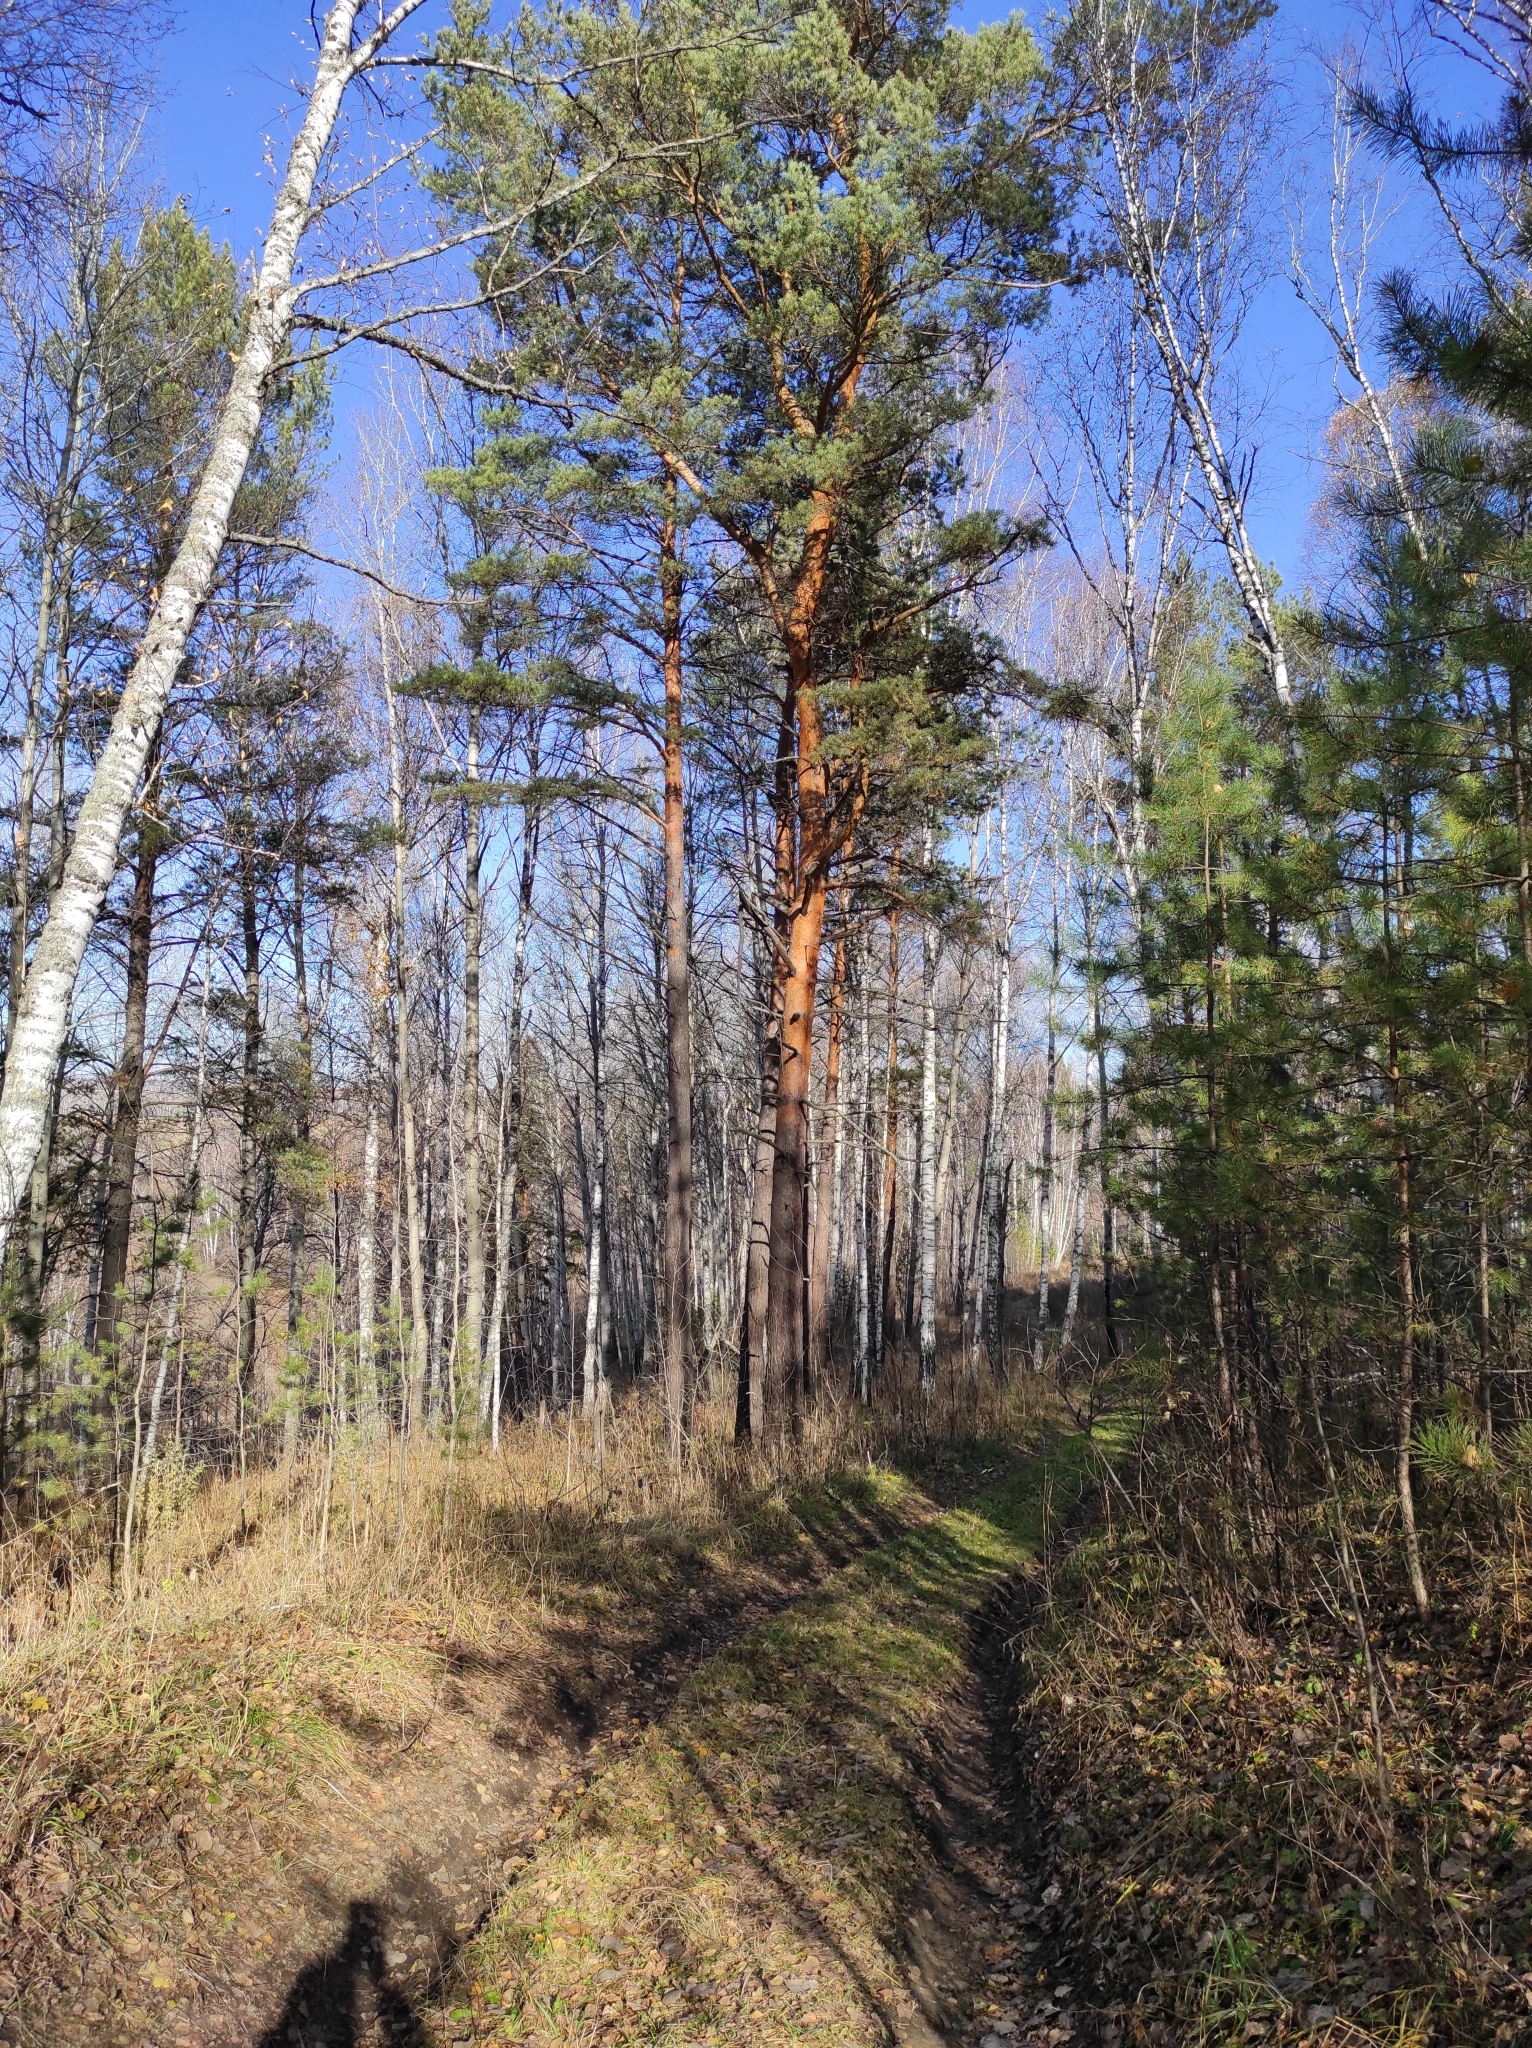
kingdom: Plantae
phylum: Tracheophyta
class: Pinopsida
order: Pinales
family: Pinaceae
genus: Pinus
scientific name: Pinus sylvestris
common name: Scots pine
